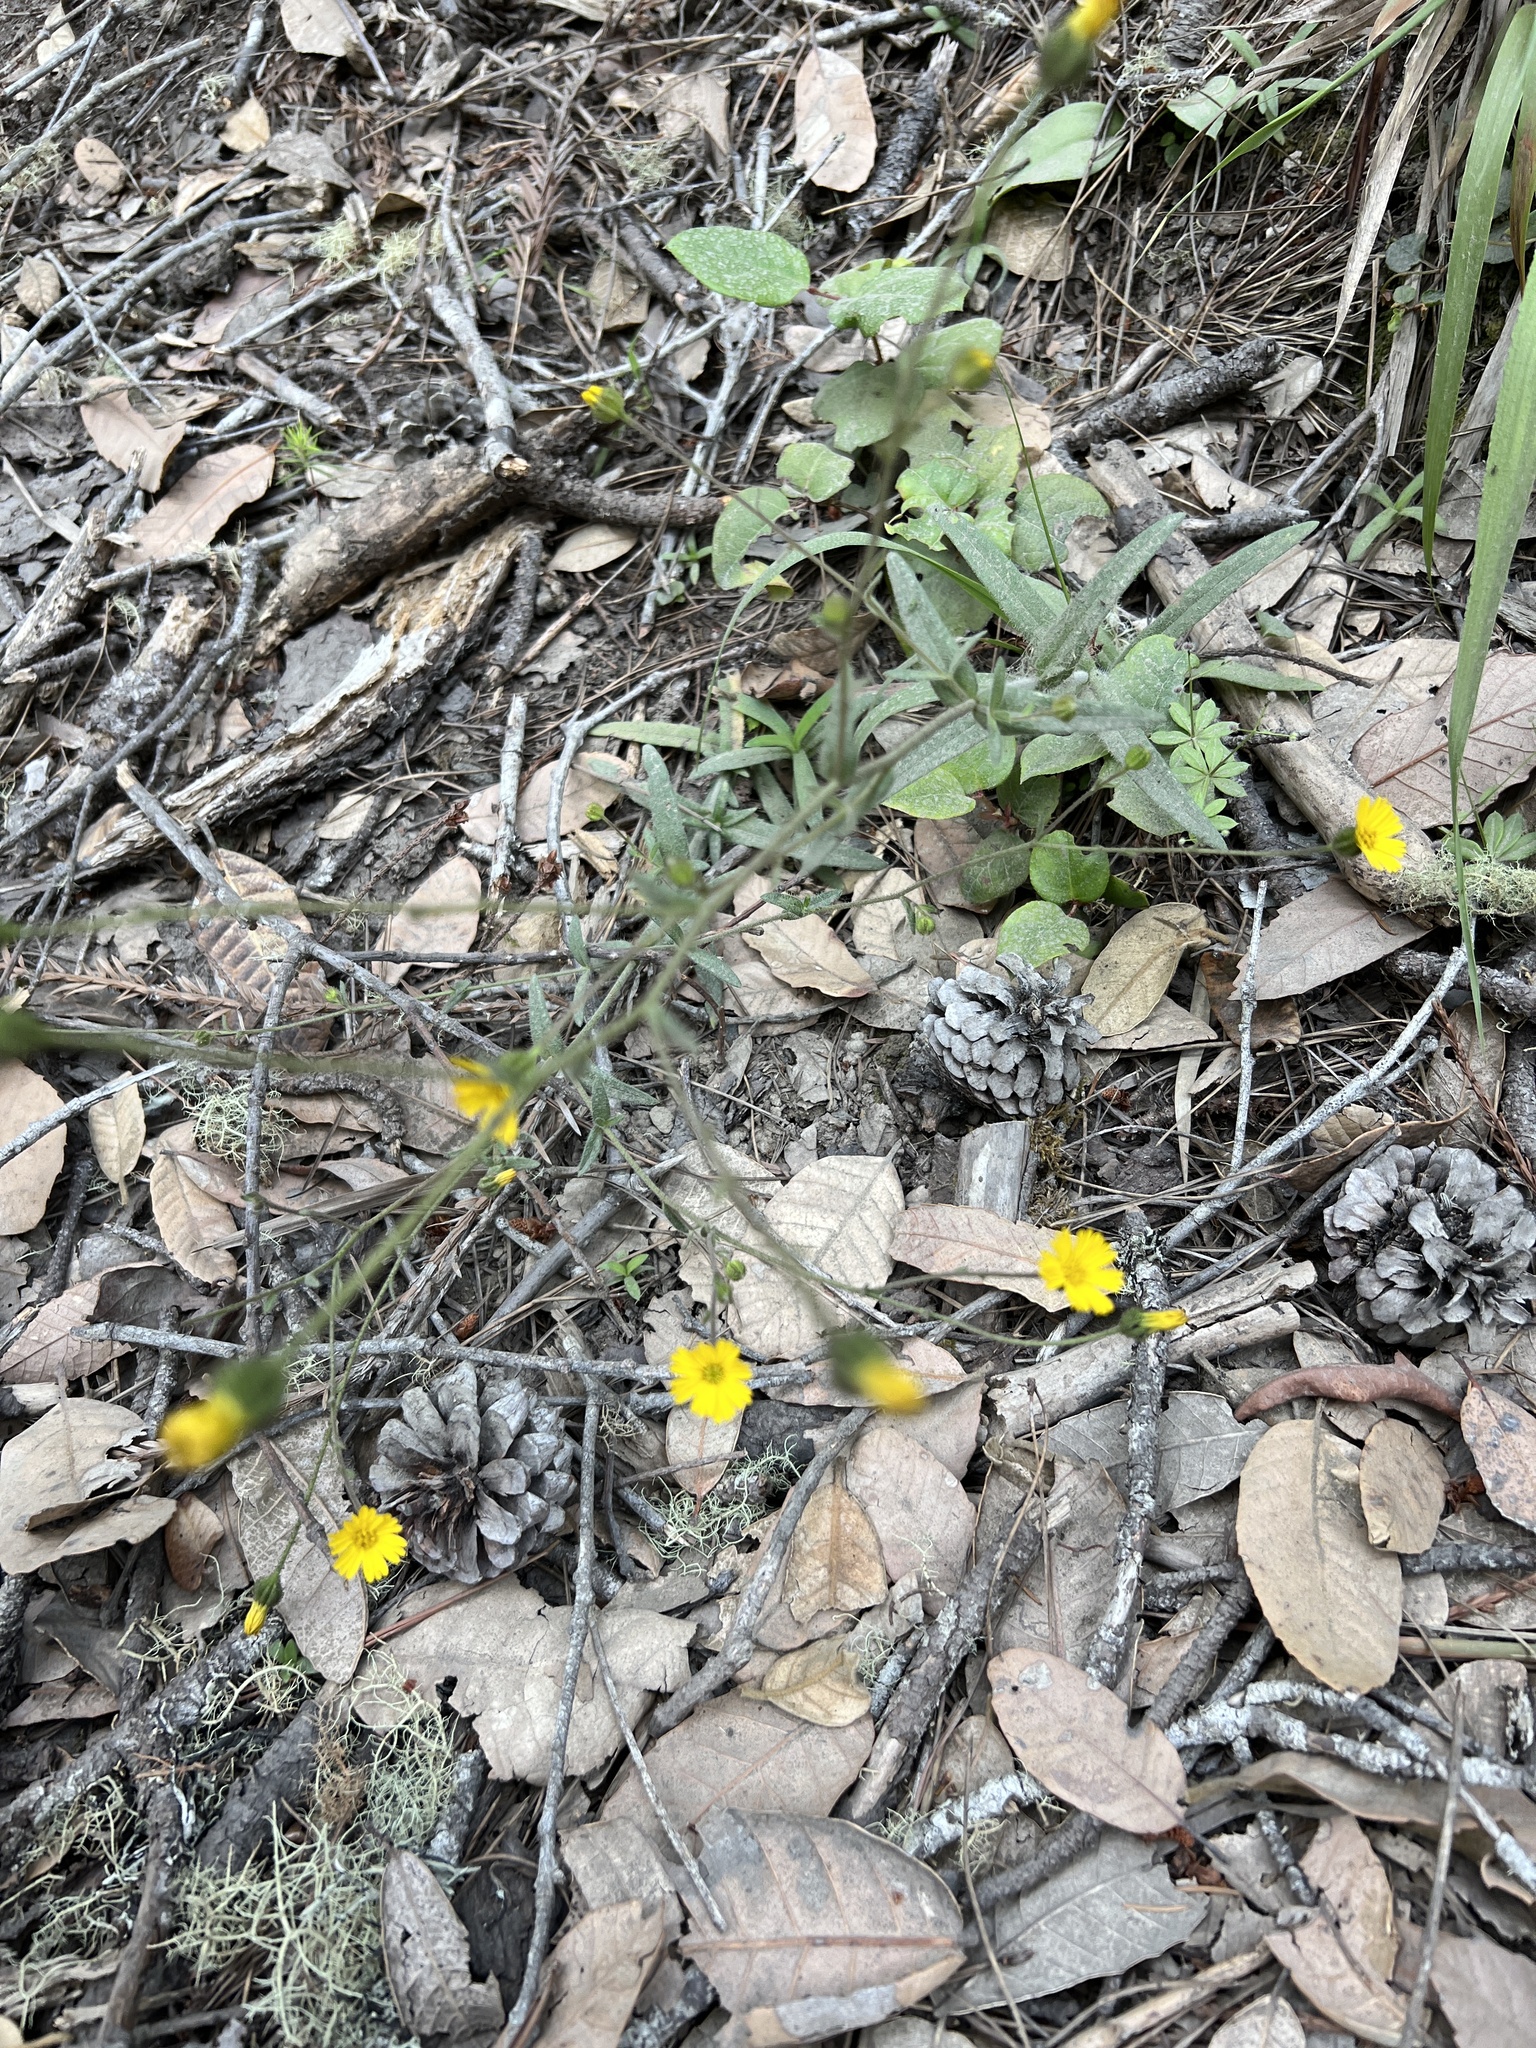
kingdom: Plantae
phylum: Tracheophyta
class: Magnoliopsida
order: Asterales
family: Asteraceae
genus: Anisocarpus
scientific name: Anisocarpus madioides
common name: Woodland madia
